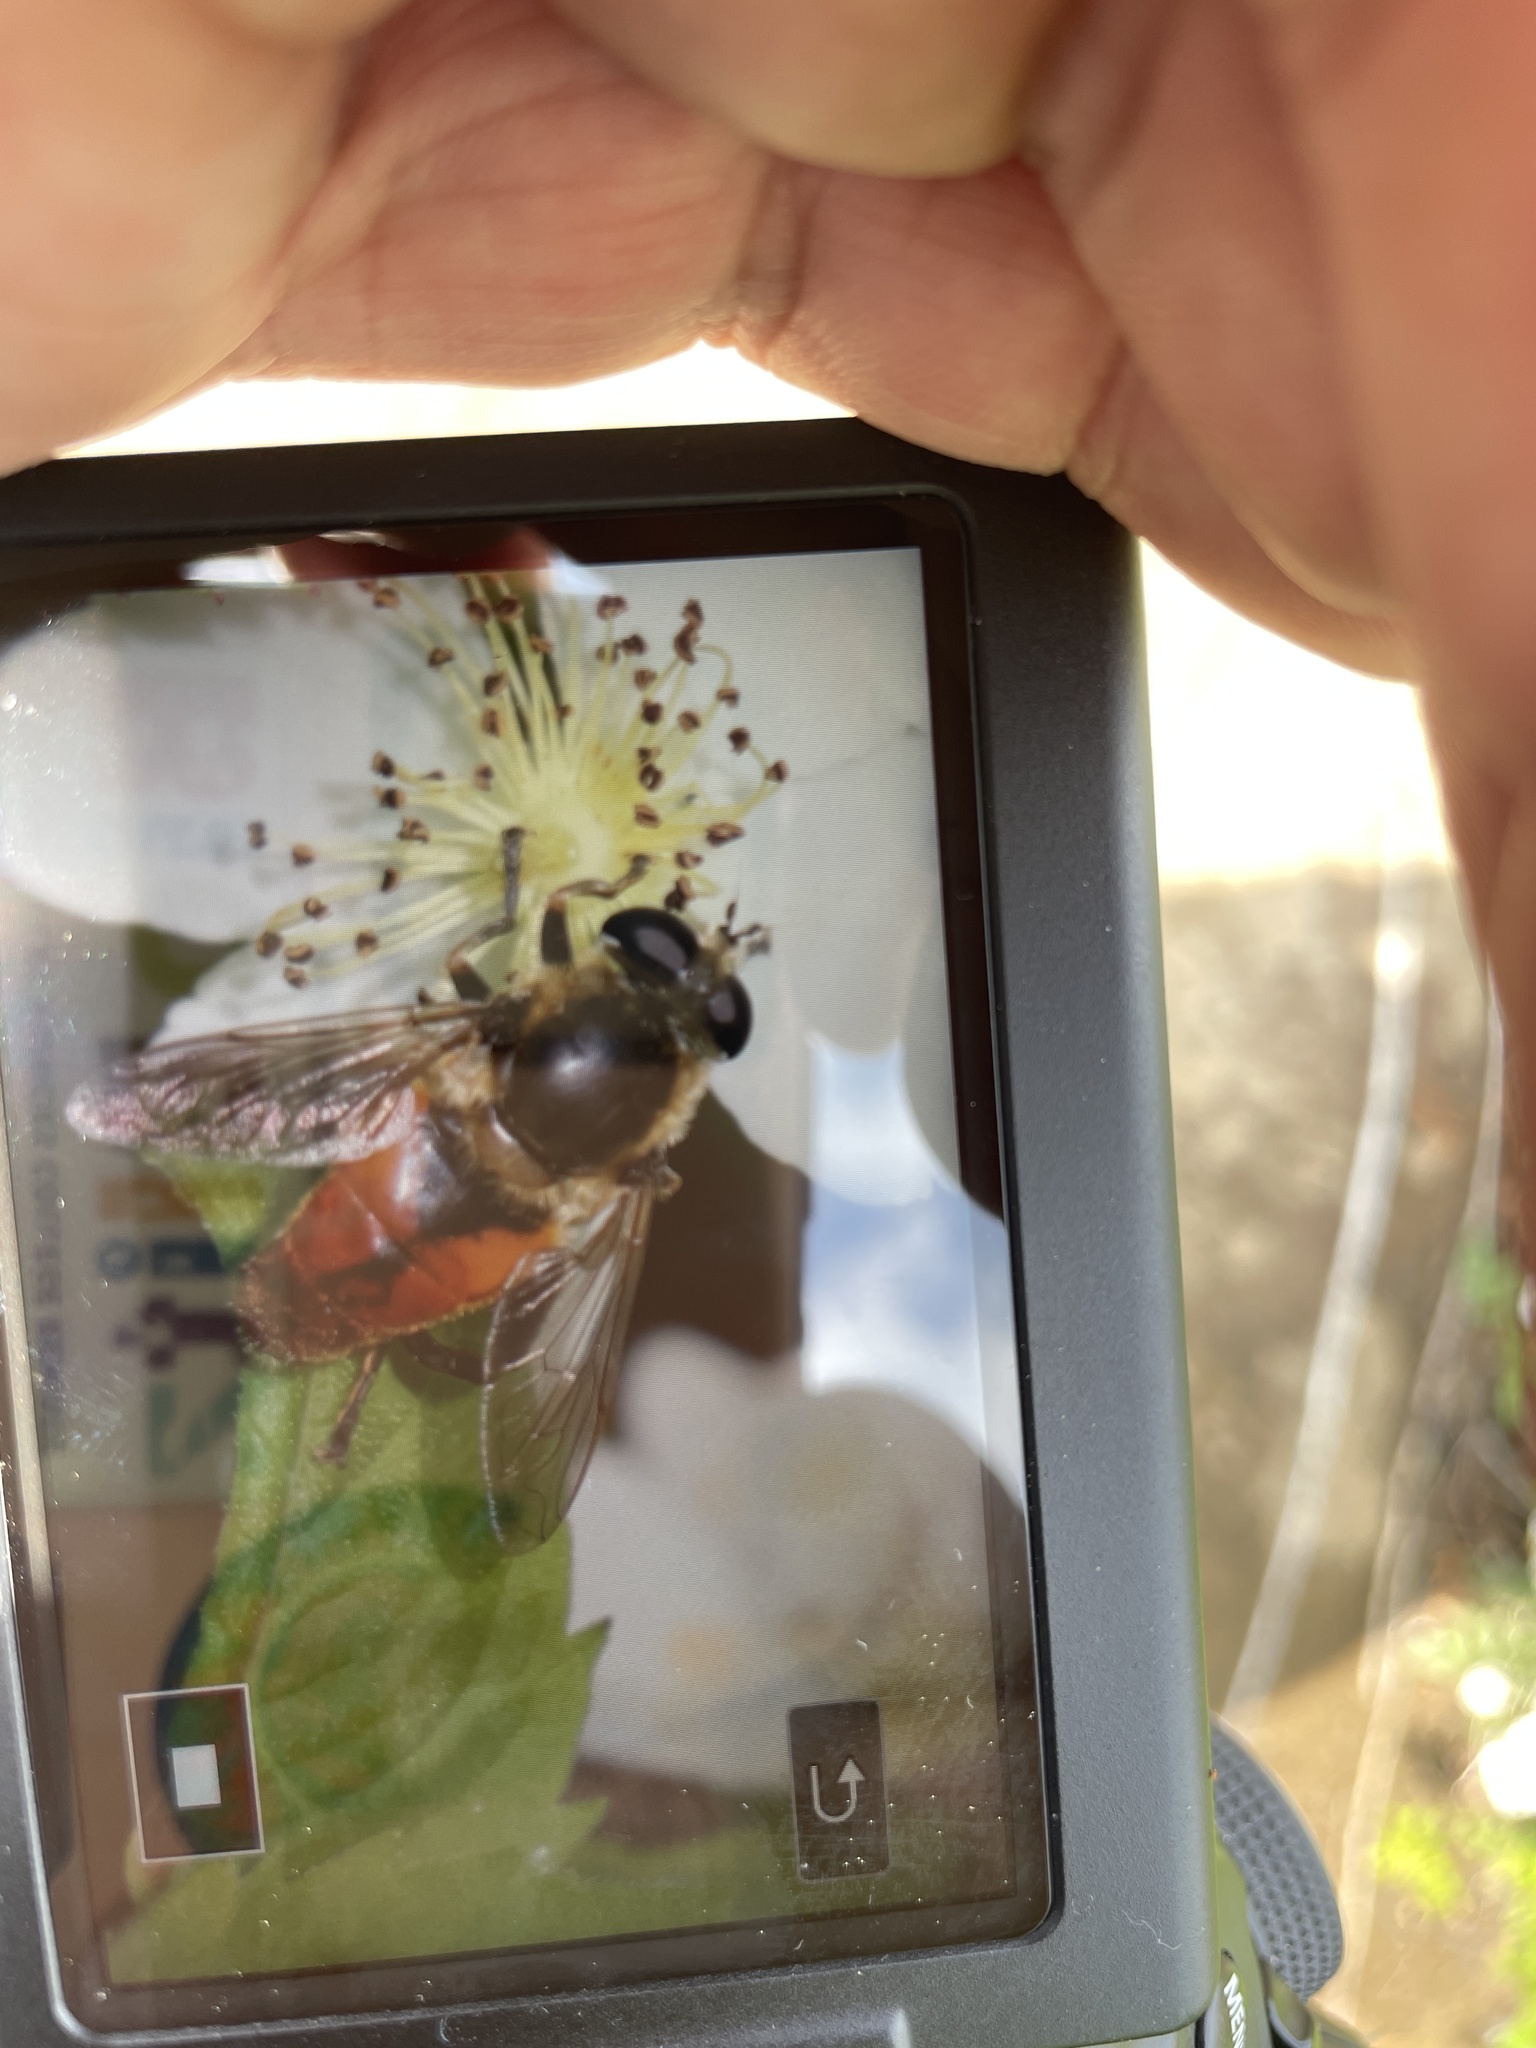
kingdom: Animalia
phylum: Arthropoda
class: Insecta
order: Diptera
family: Syrphidae
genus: Polydontomyia
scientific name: Polydontomyia curvipes
